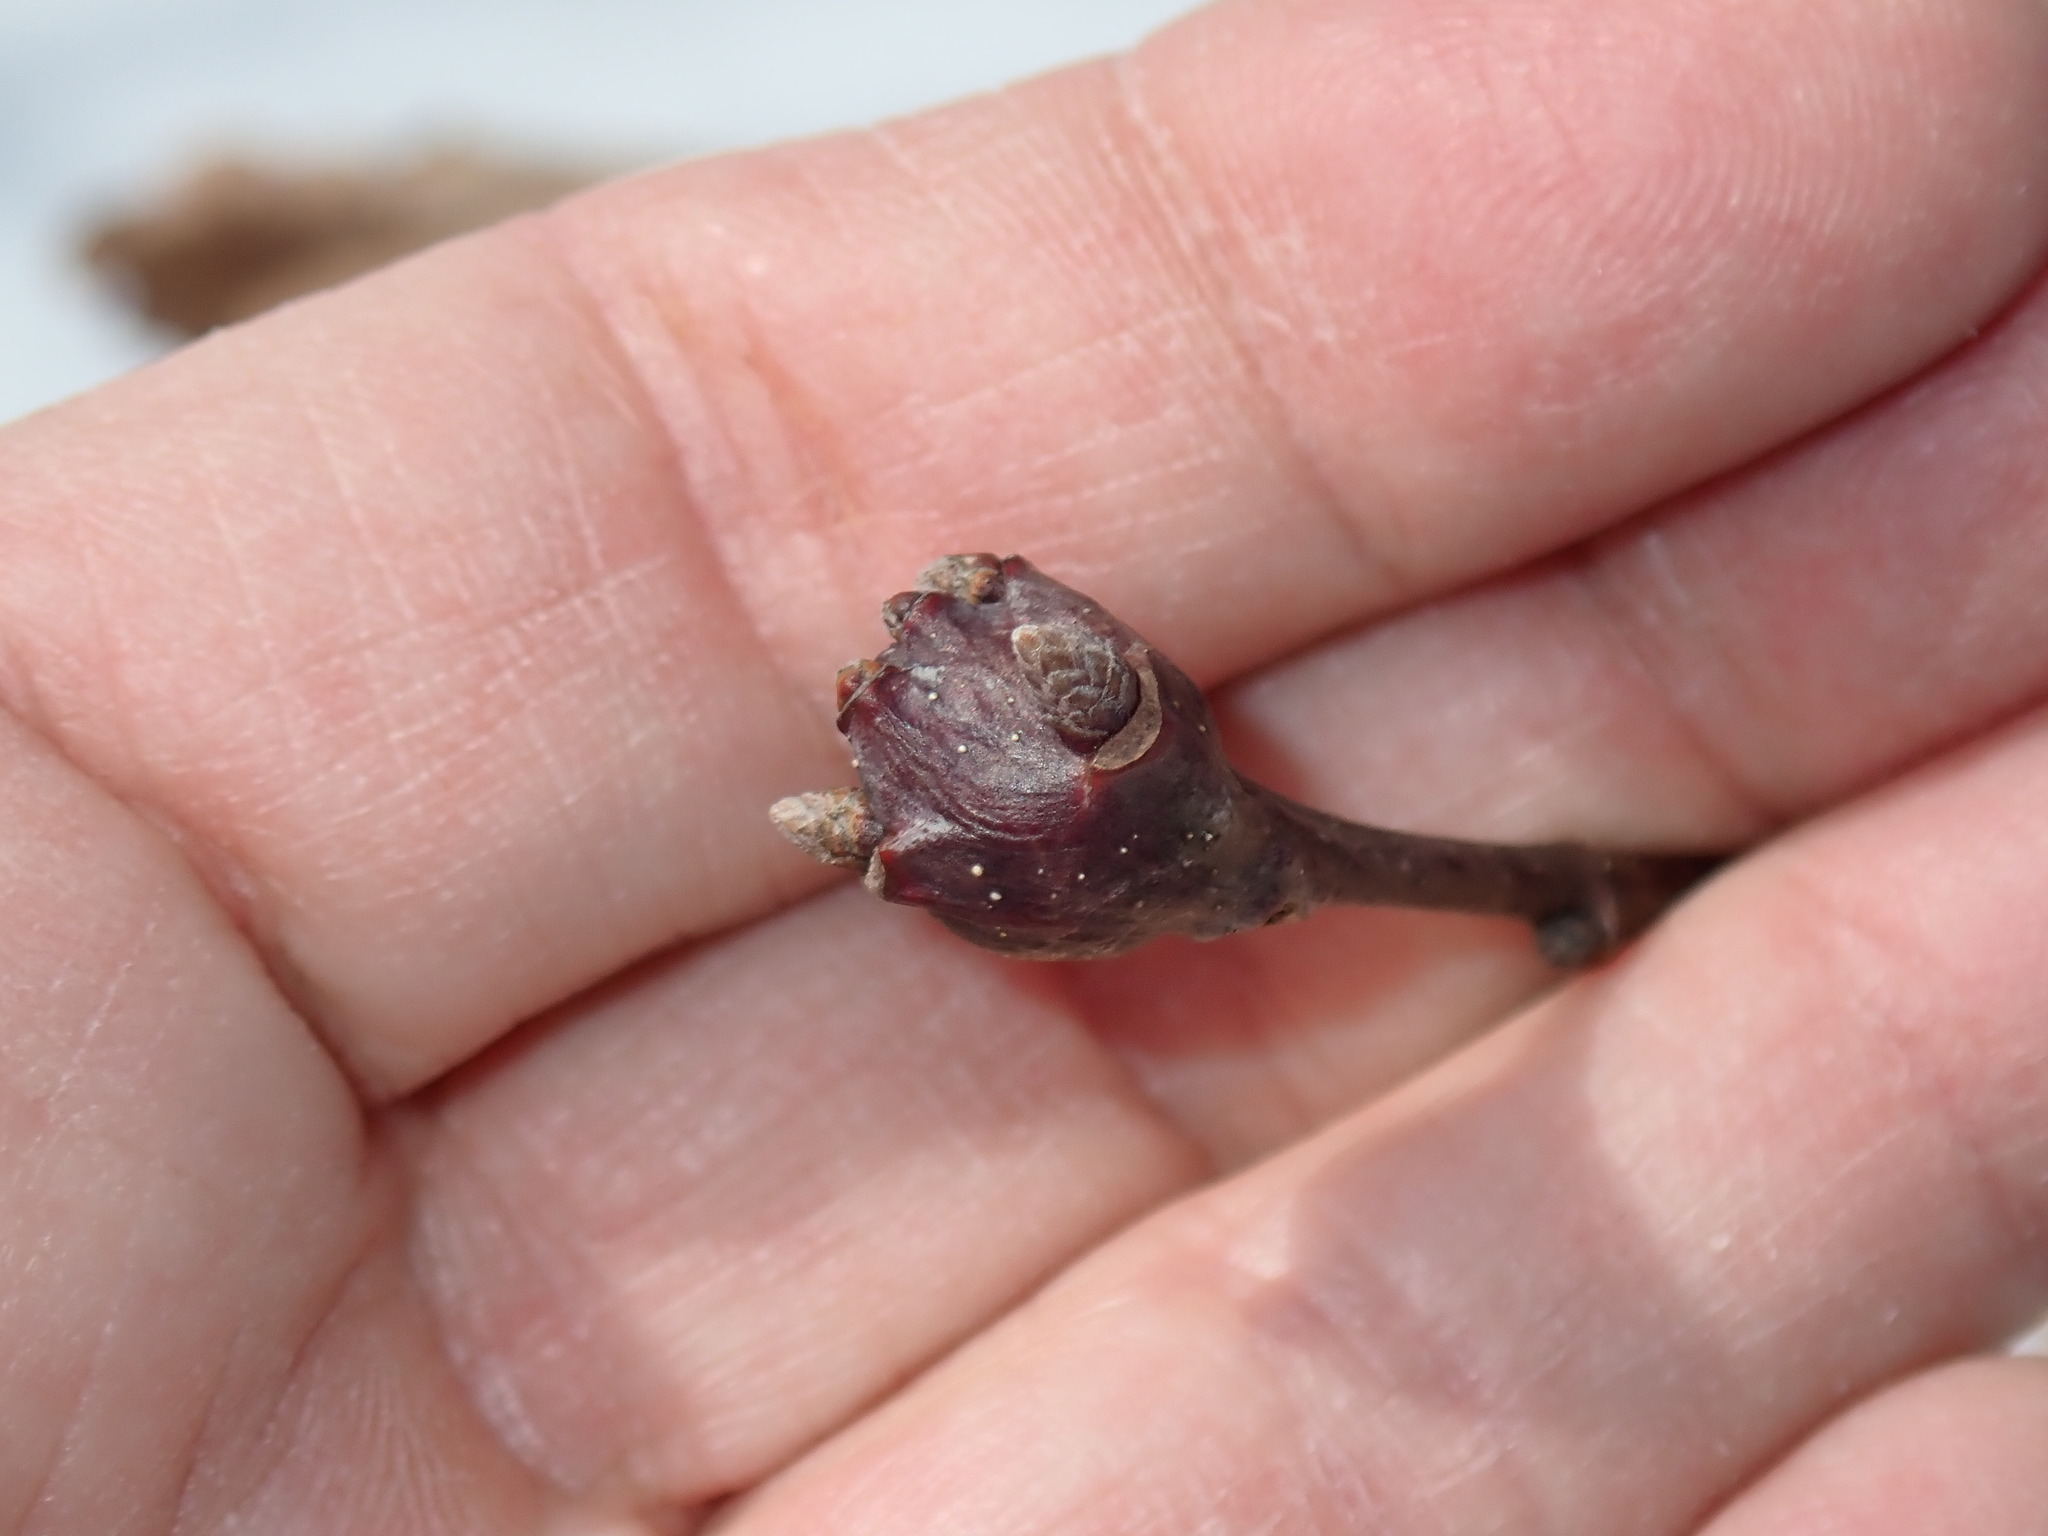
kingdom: Animalia
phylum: Arthropoda
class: Insecta
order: Hymenoptera
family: Cynipidae
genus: Callirhytis
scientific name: Callirhytis clavula
